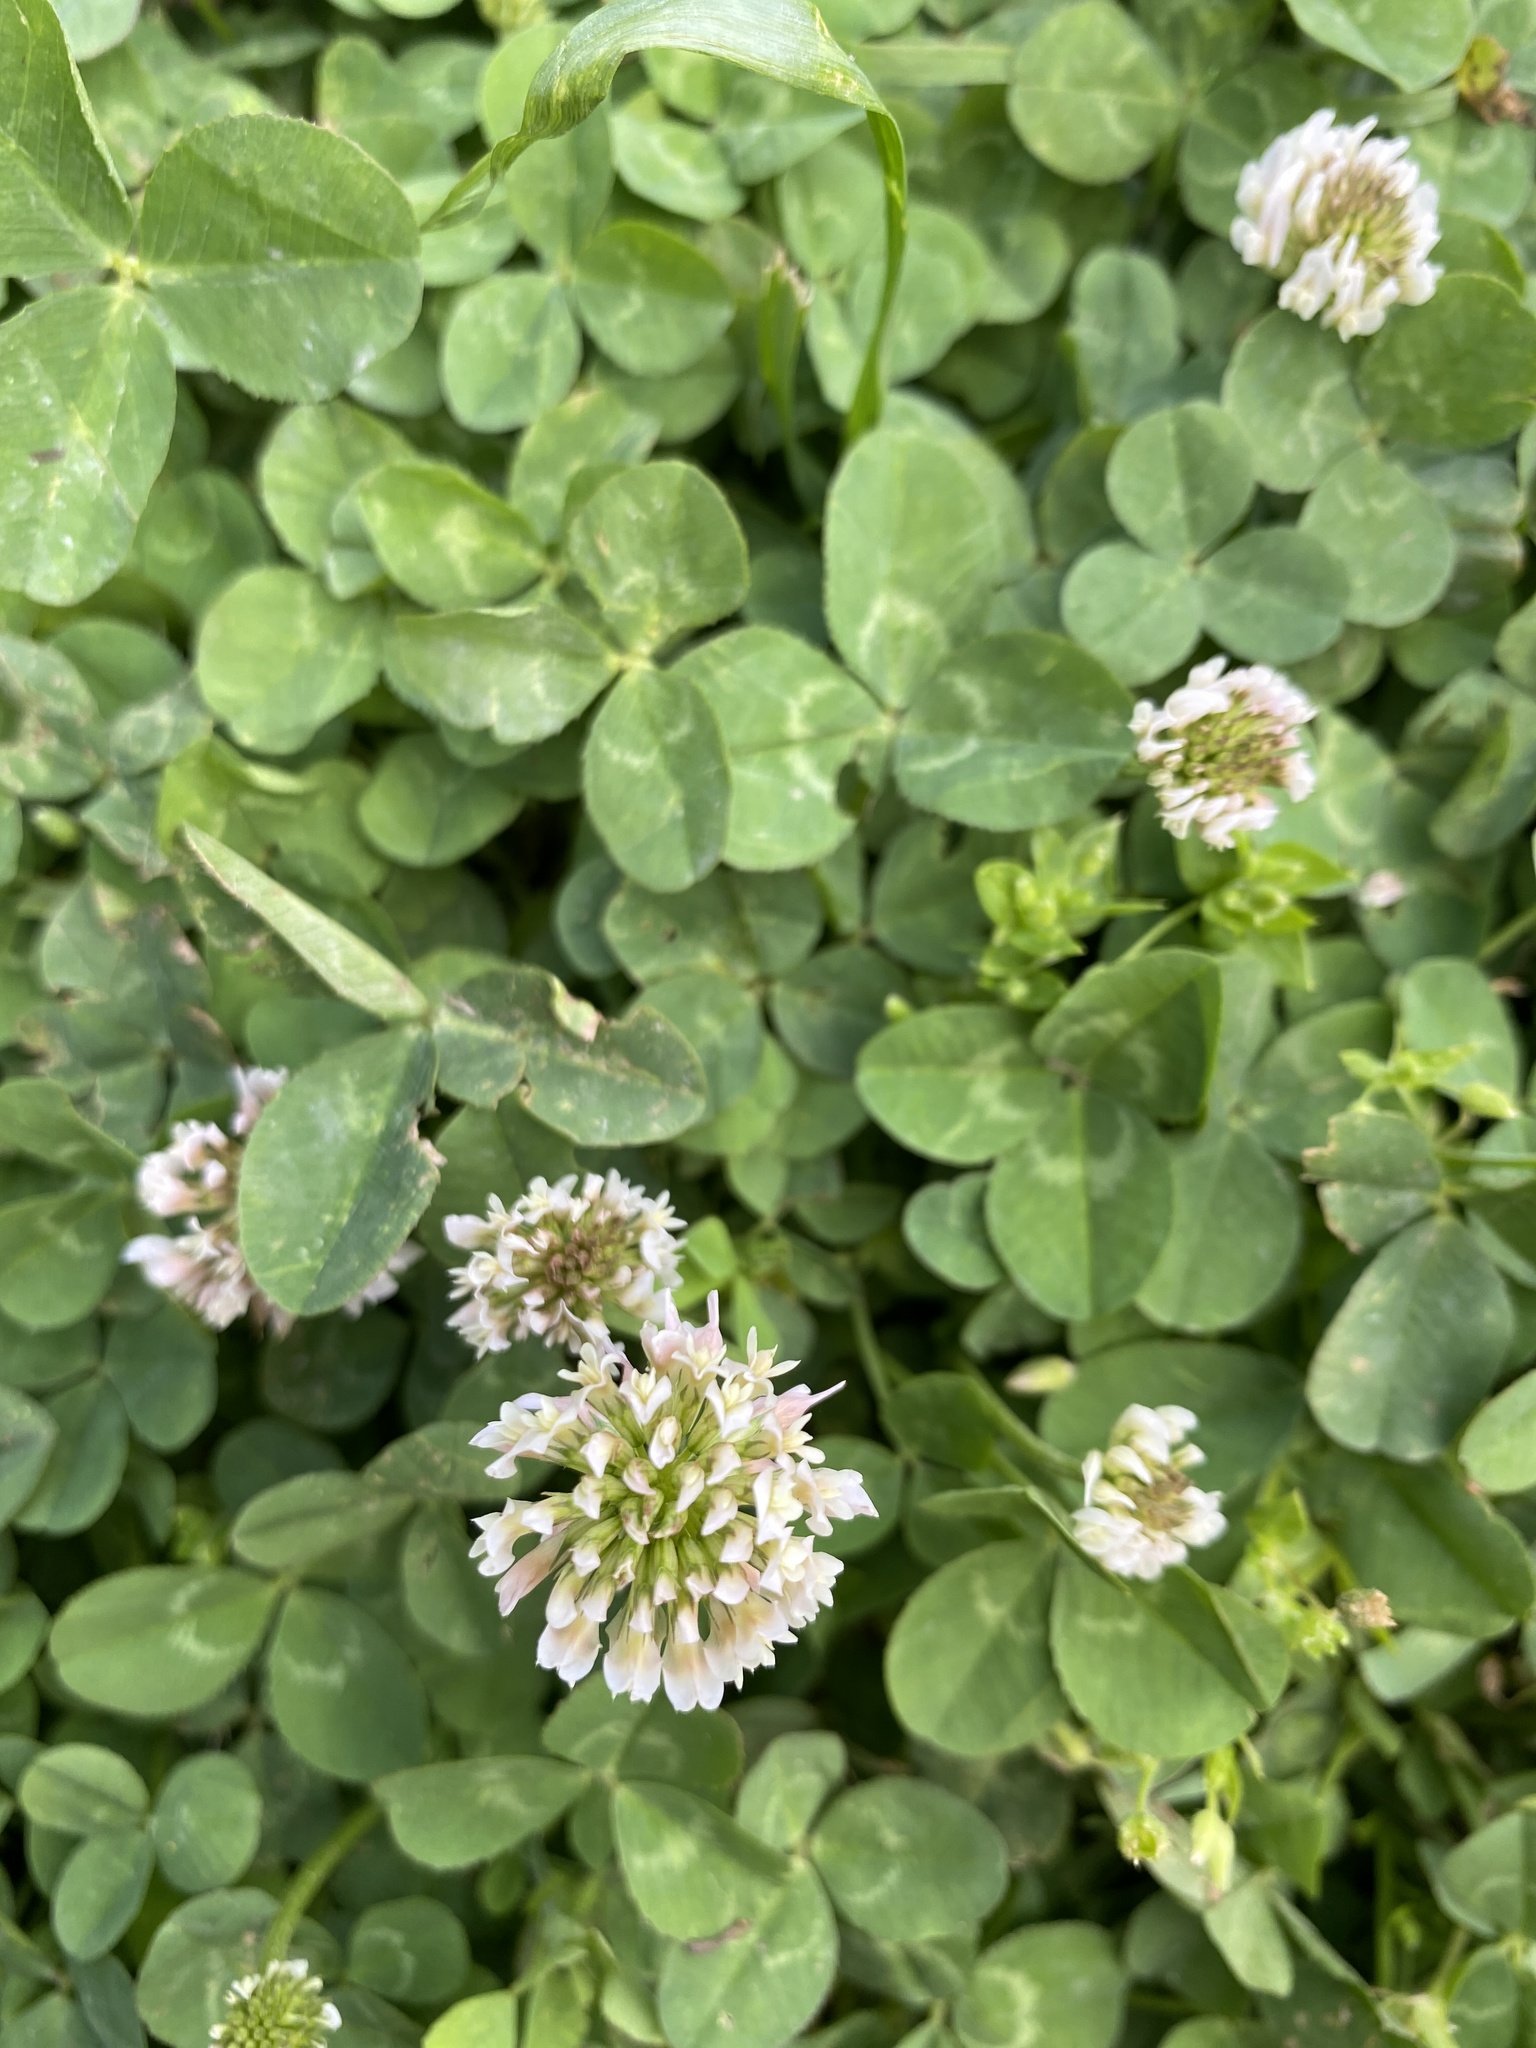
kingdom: Plantae
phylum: Tracheophyta
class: Magnoliopsida
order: Fabales
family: Fabaceae
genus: Trifolium
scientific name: Trifolium repens
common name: White clover
